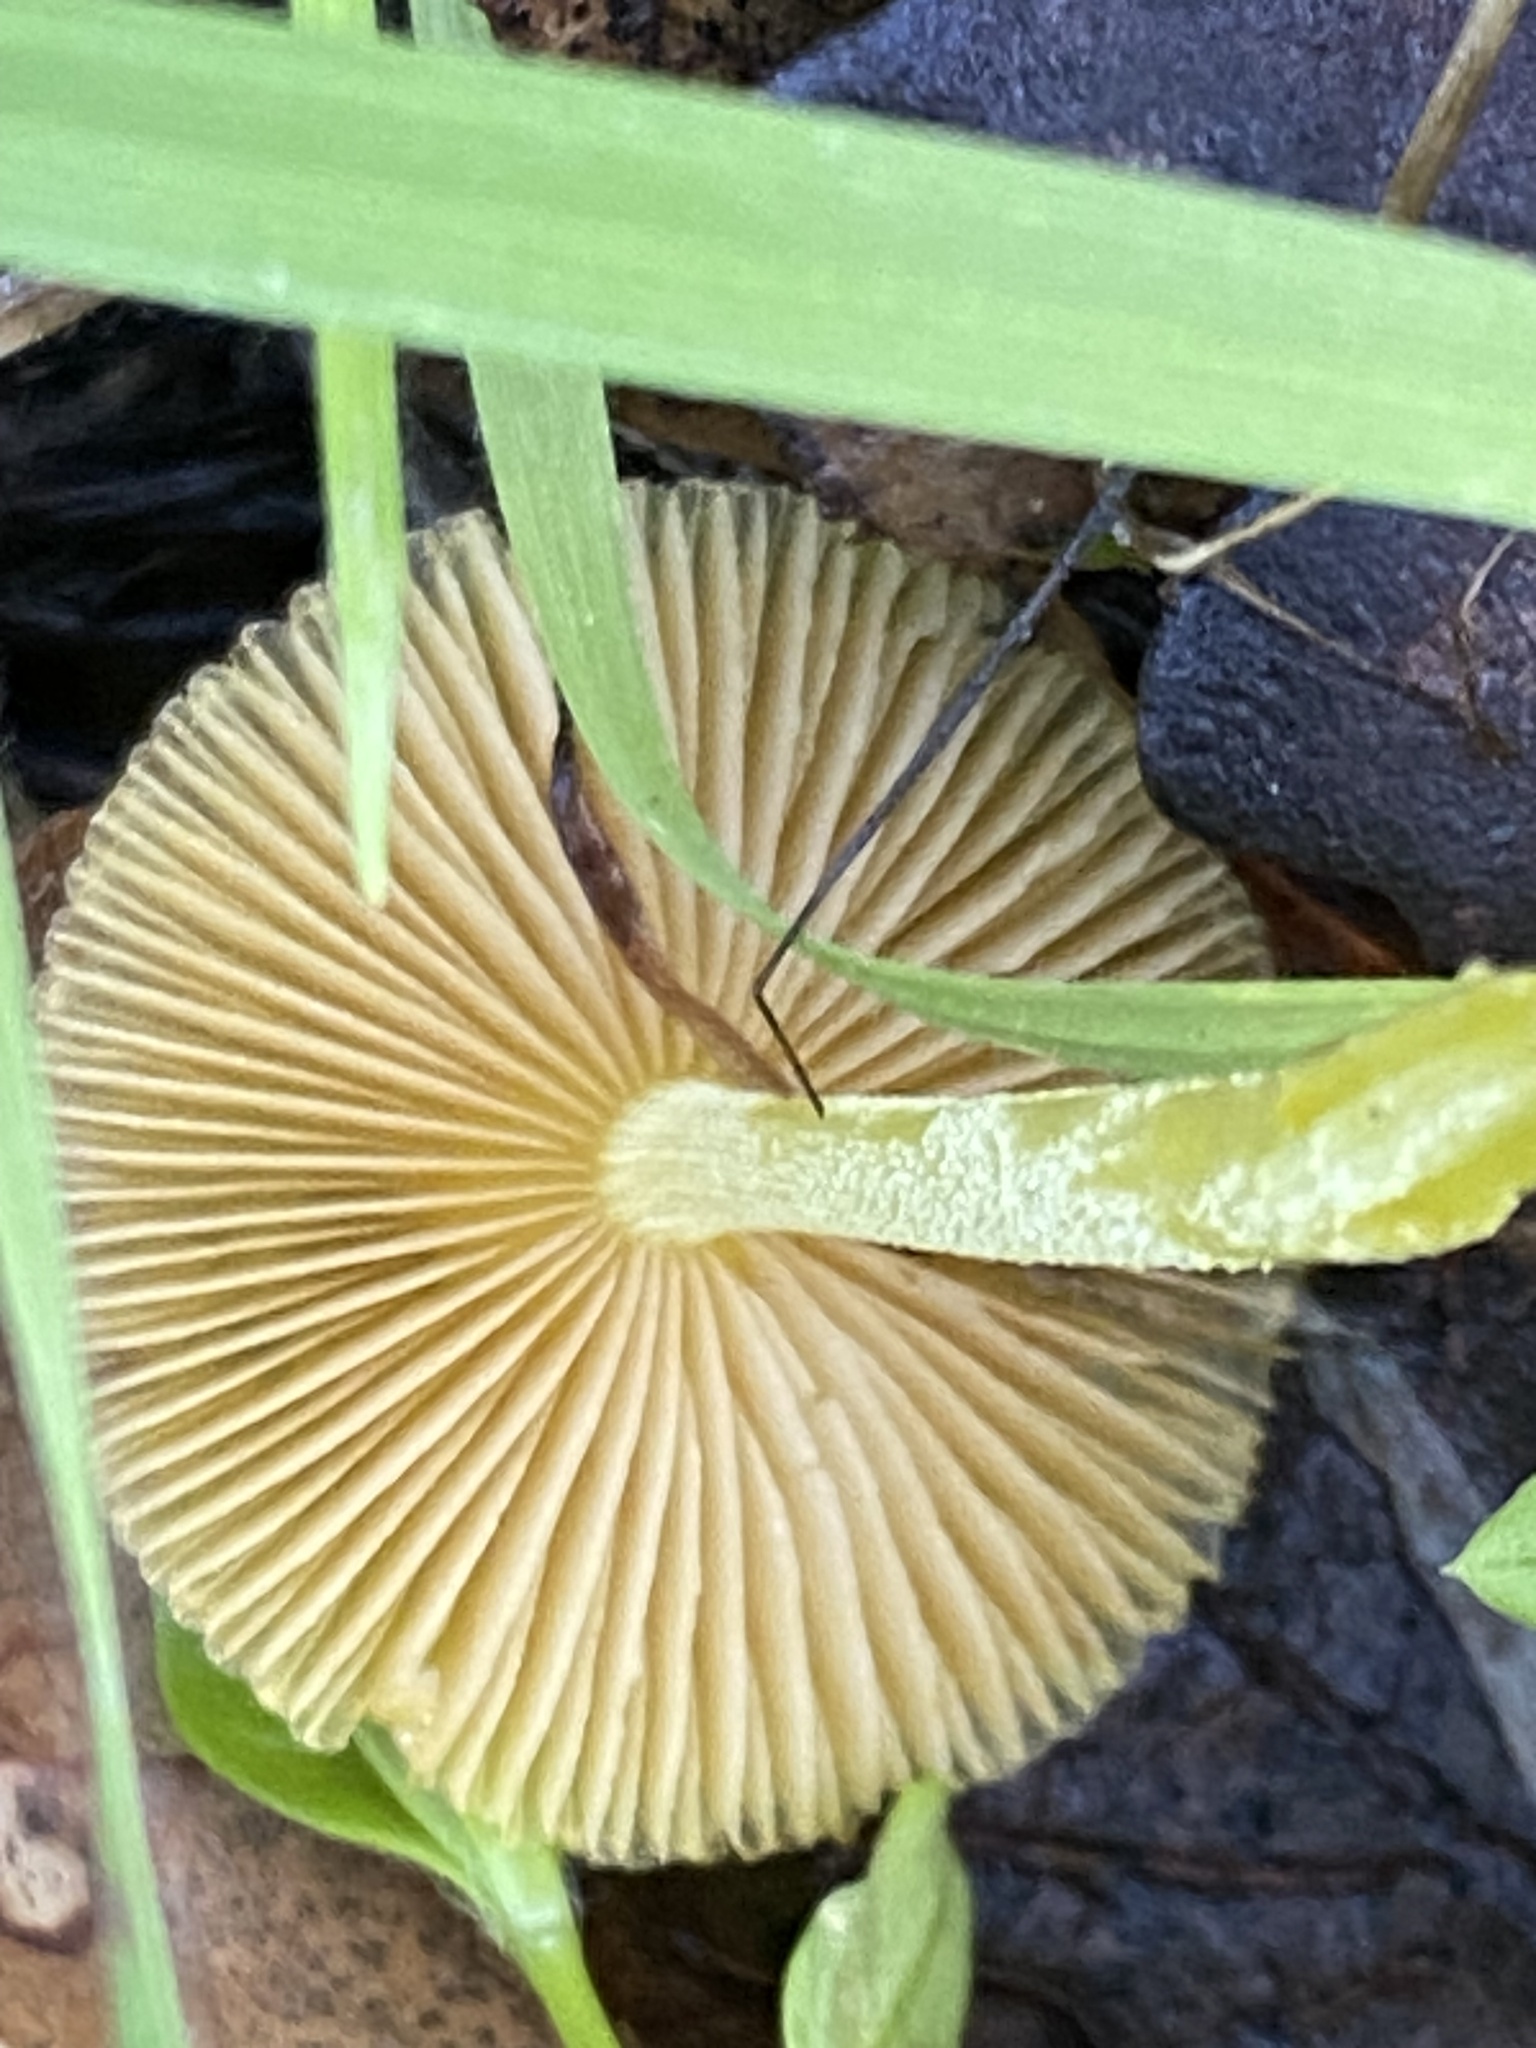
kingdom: Fungi
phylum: Basidiomycota
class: Agaricomycetes
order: Agaricales
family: Bolbitiaceae
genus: Bolbitius
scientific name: Bolbitius titubans
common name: Yellow fieldcap
